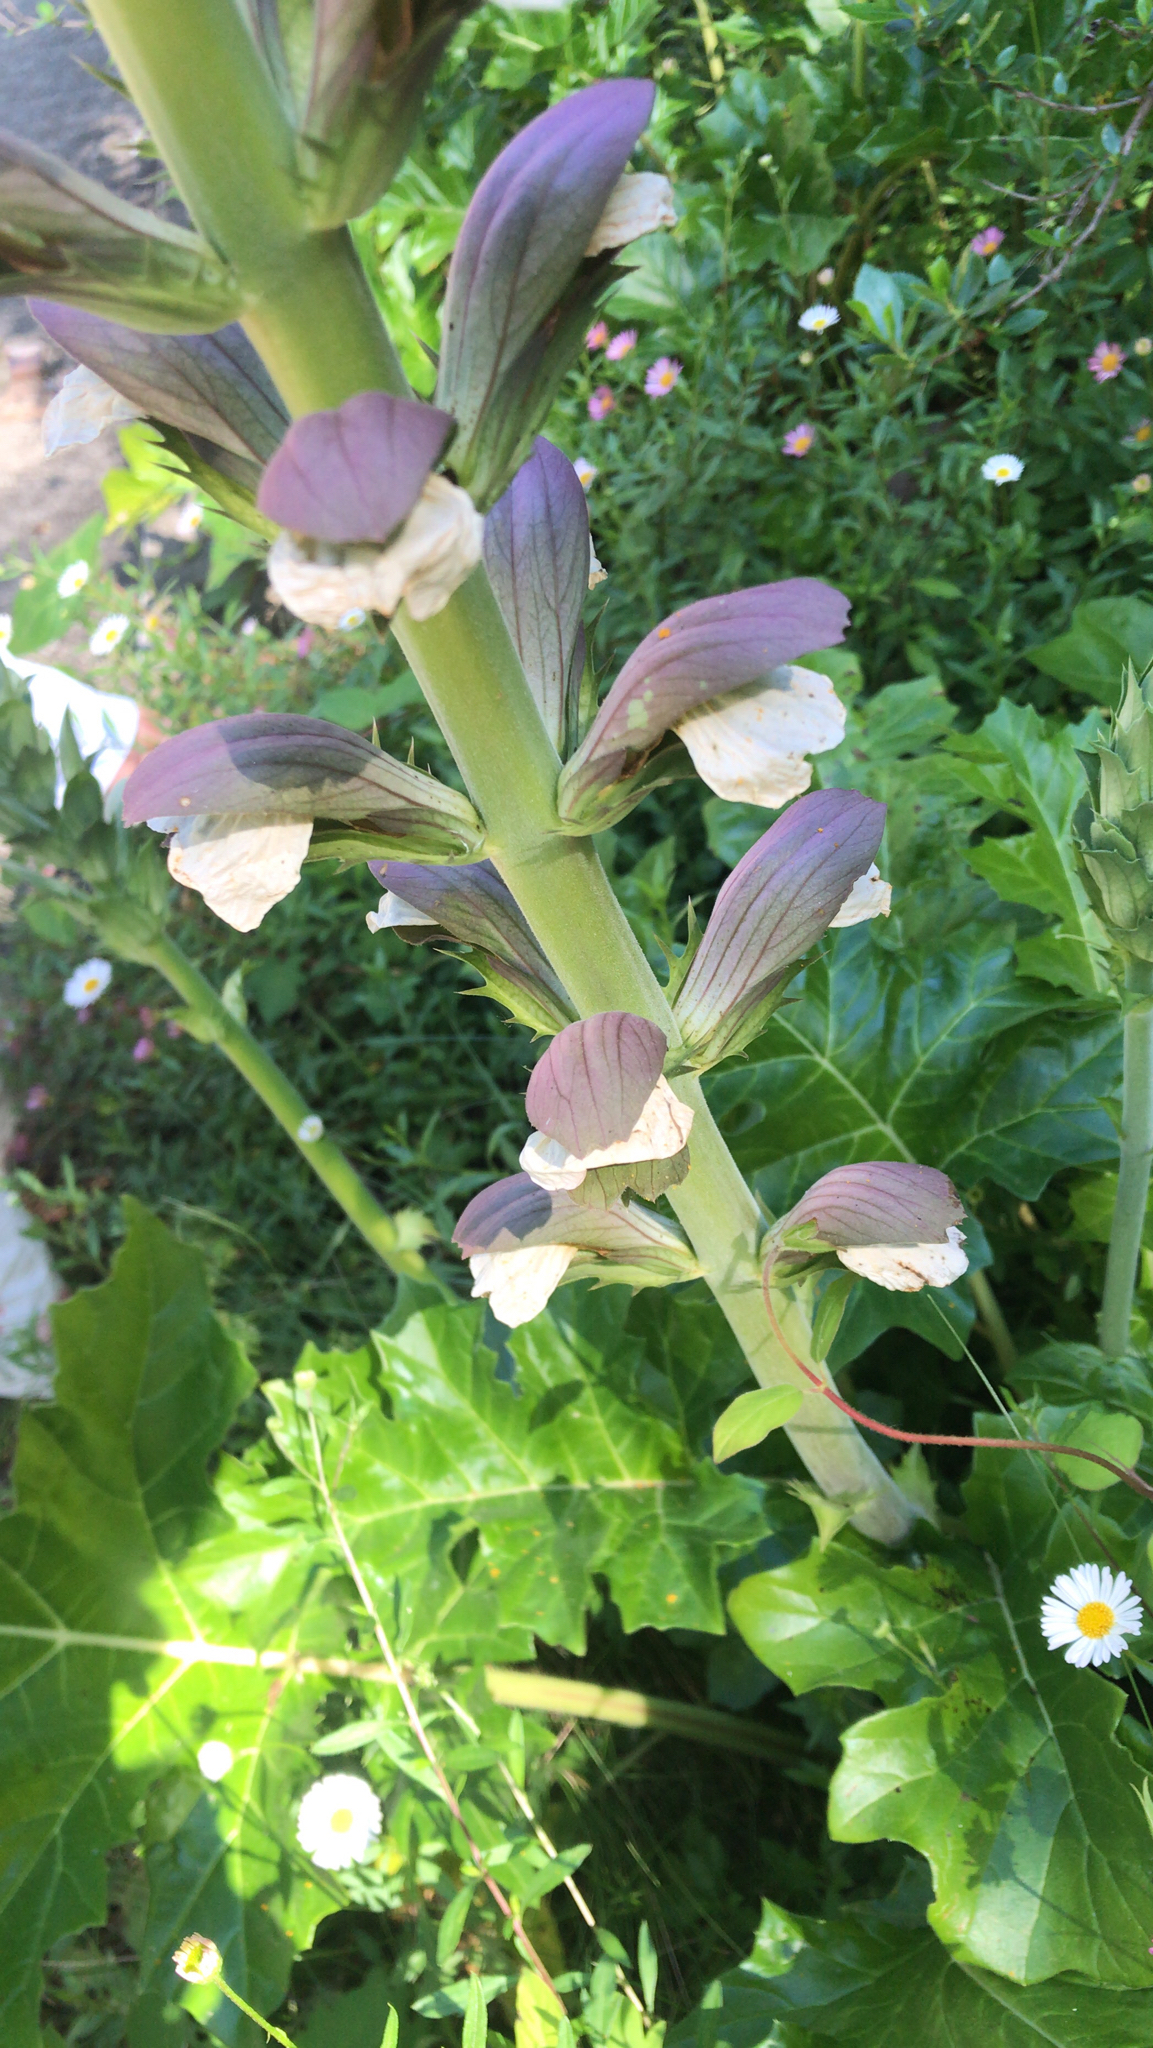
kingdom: Plantae
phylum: Tracheophyta
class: Magnoliopsida
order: Lamiales
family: Acanthaceae
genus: Acanthus
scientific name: Acanthus mollis
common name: Bear's-breech
